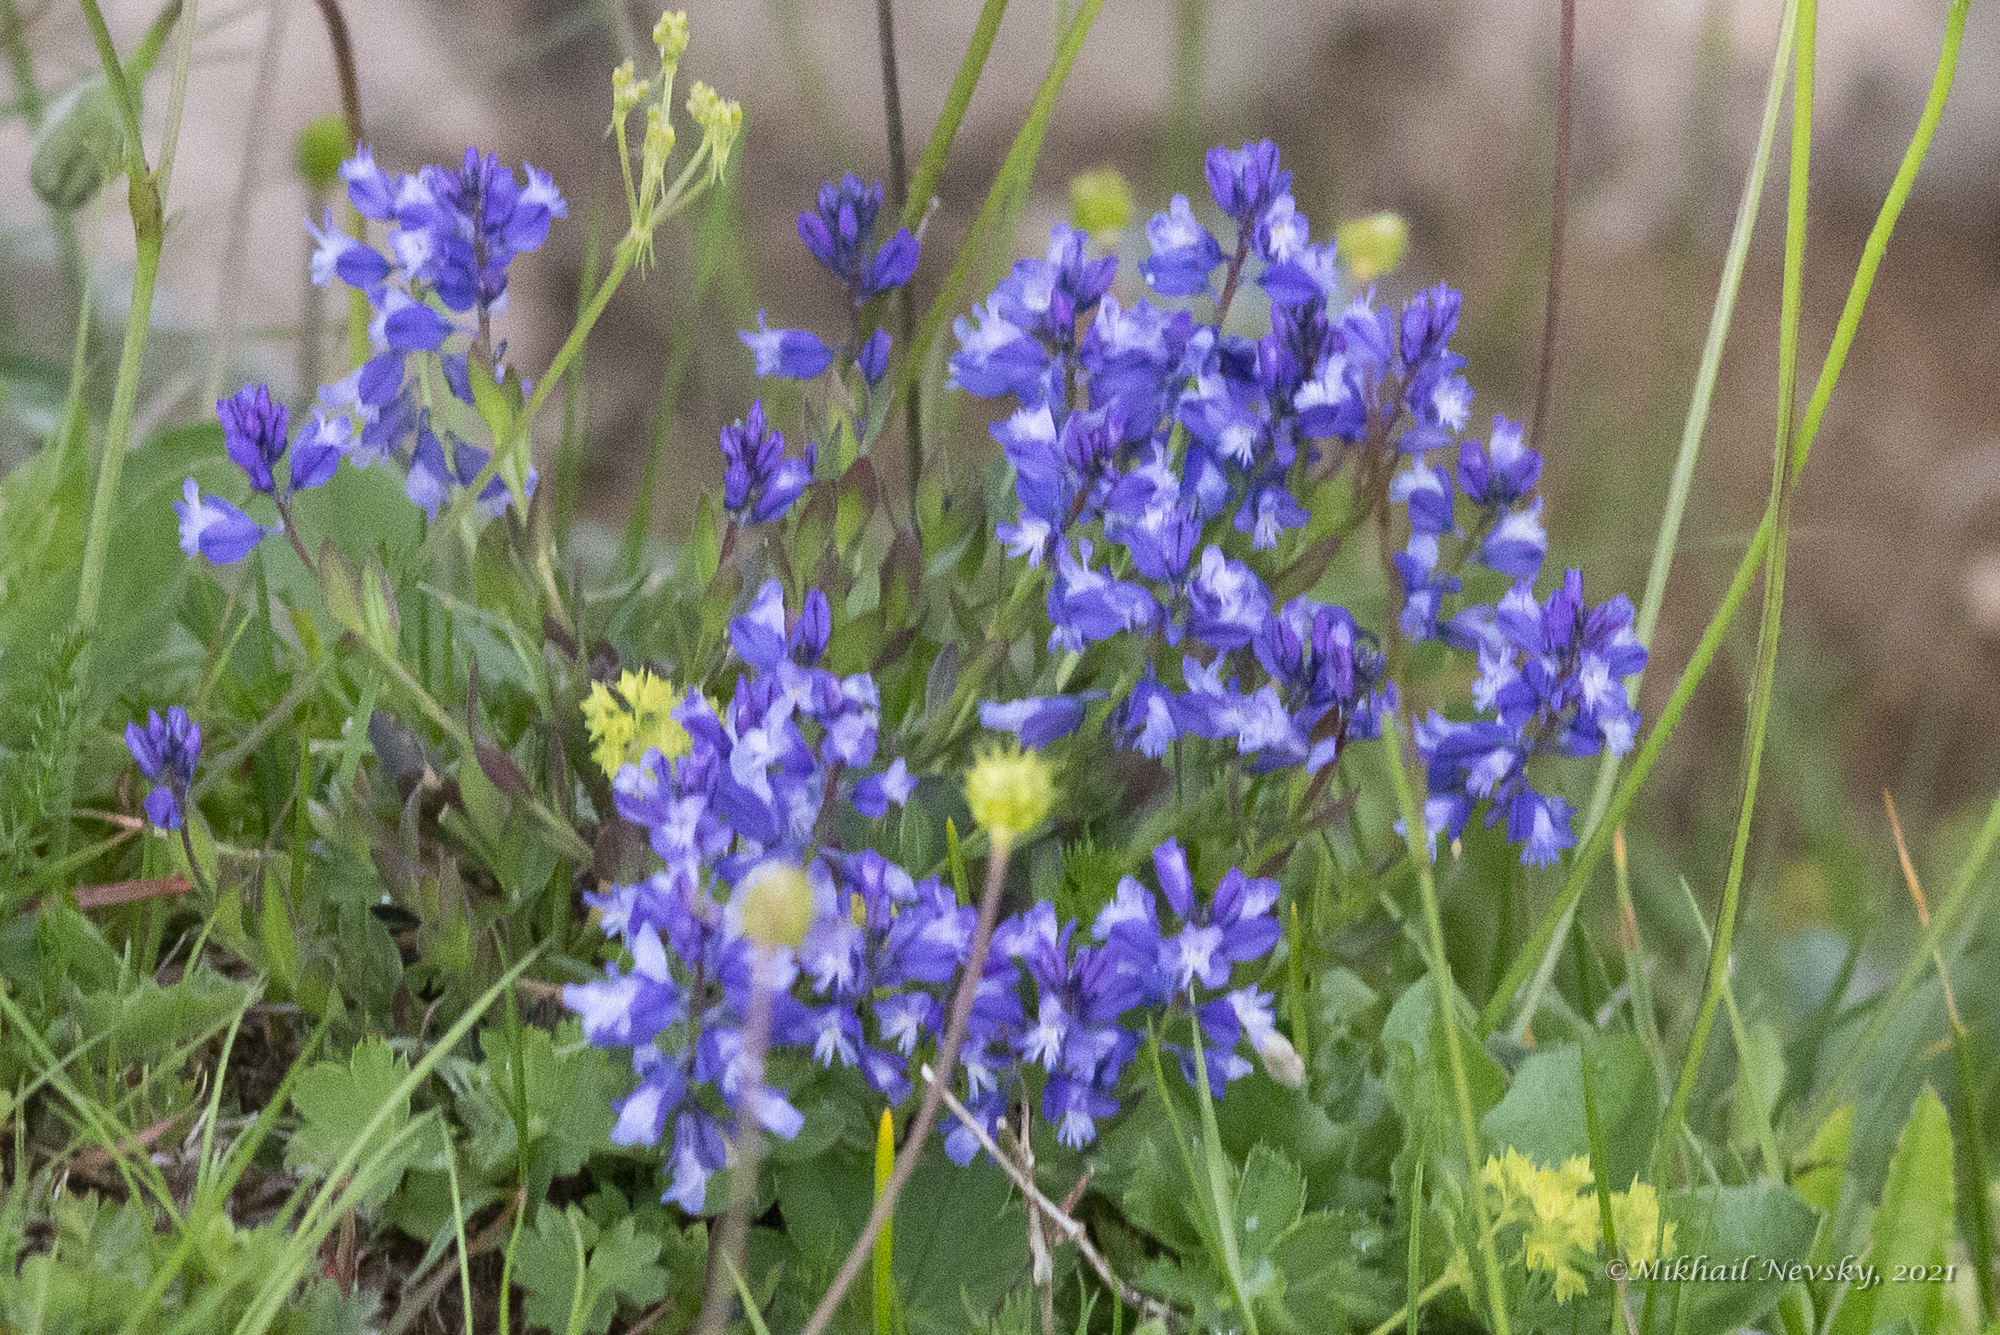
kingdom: Plantae
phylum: Tracheophyta
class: Magnoliopsida
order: Fabales
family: Polygalaceae
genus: Polygala
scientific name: Polygala caucasica
